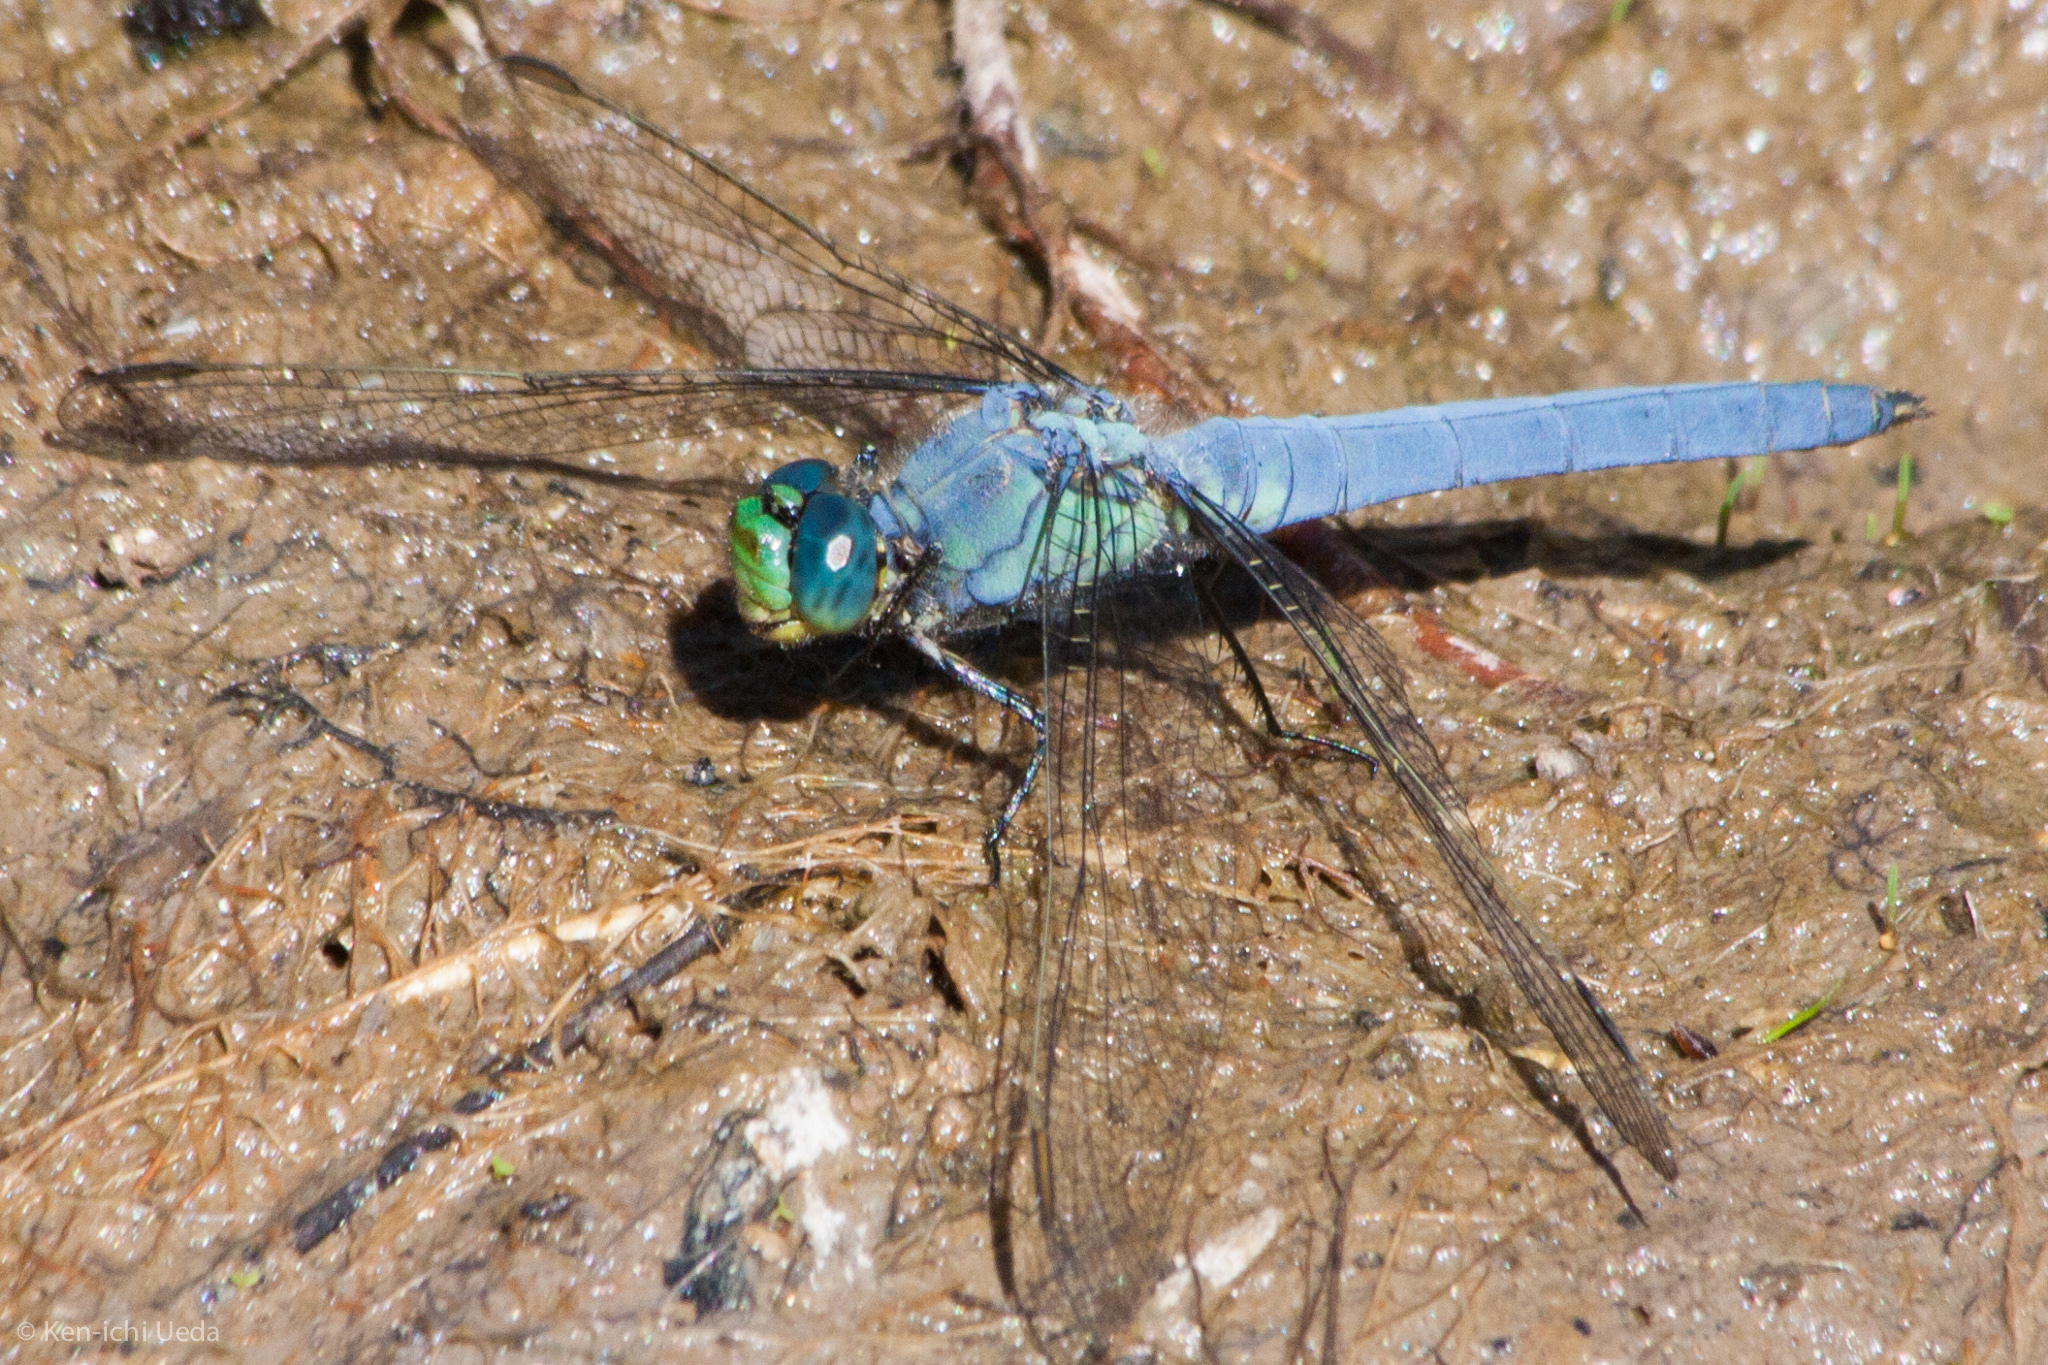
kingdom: Animalia
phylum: Arthropoda
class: Insecta
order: Odonata
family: Libellulidae
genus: Erythemis
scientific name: Erythemis collocata
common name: Western pondhawk
